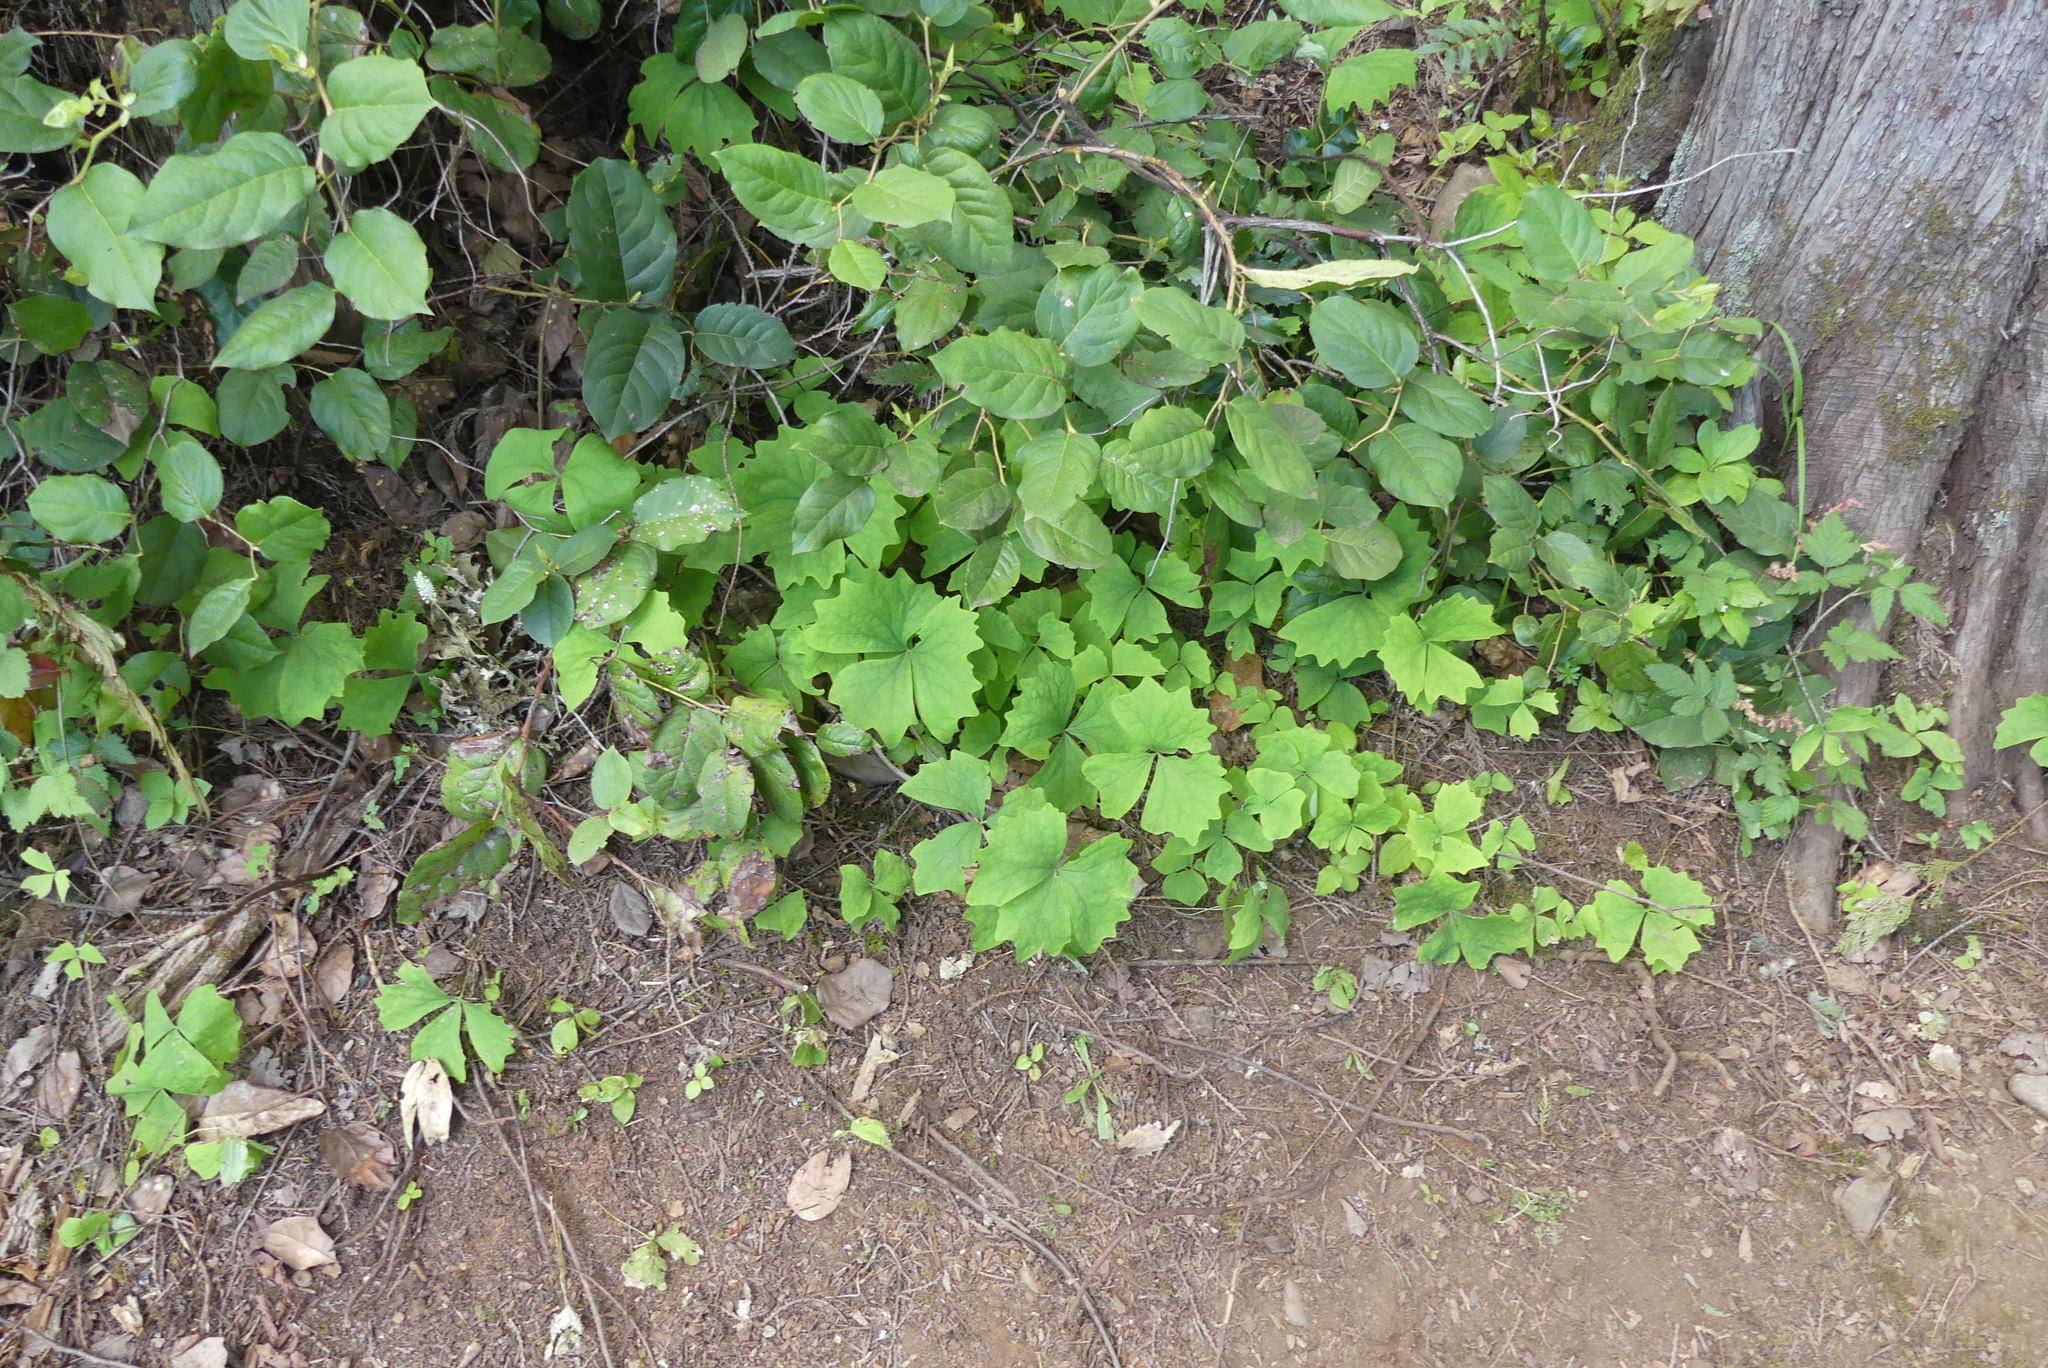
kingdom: Plantae
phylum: Tracheophyta
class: Magnoliopsida
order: Ranunculales
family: Berberidaceae
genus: Achlys
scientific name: Achlys triphylla
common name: Vanilla-leaf
